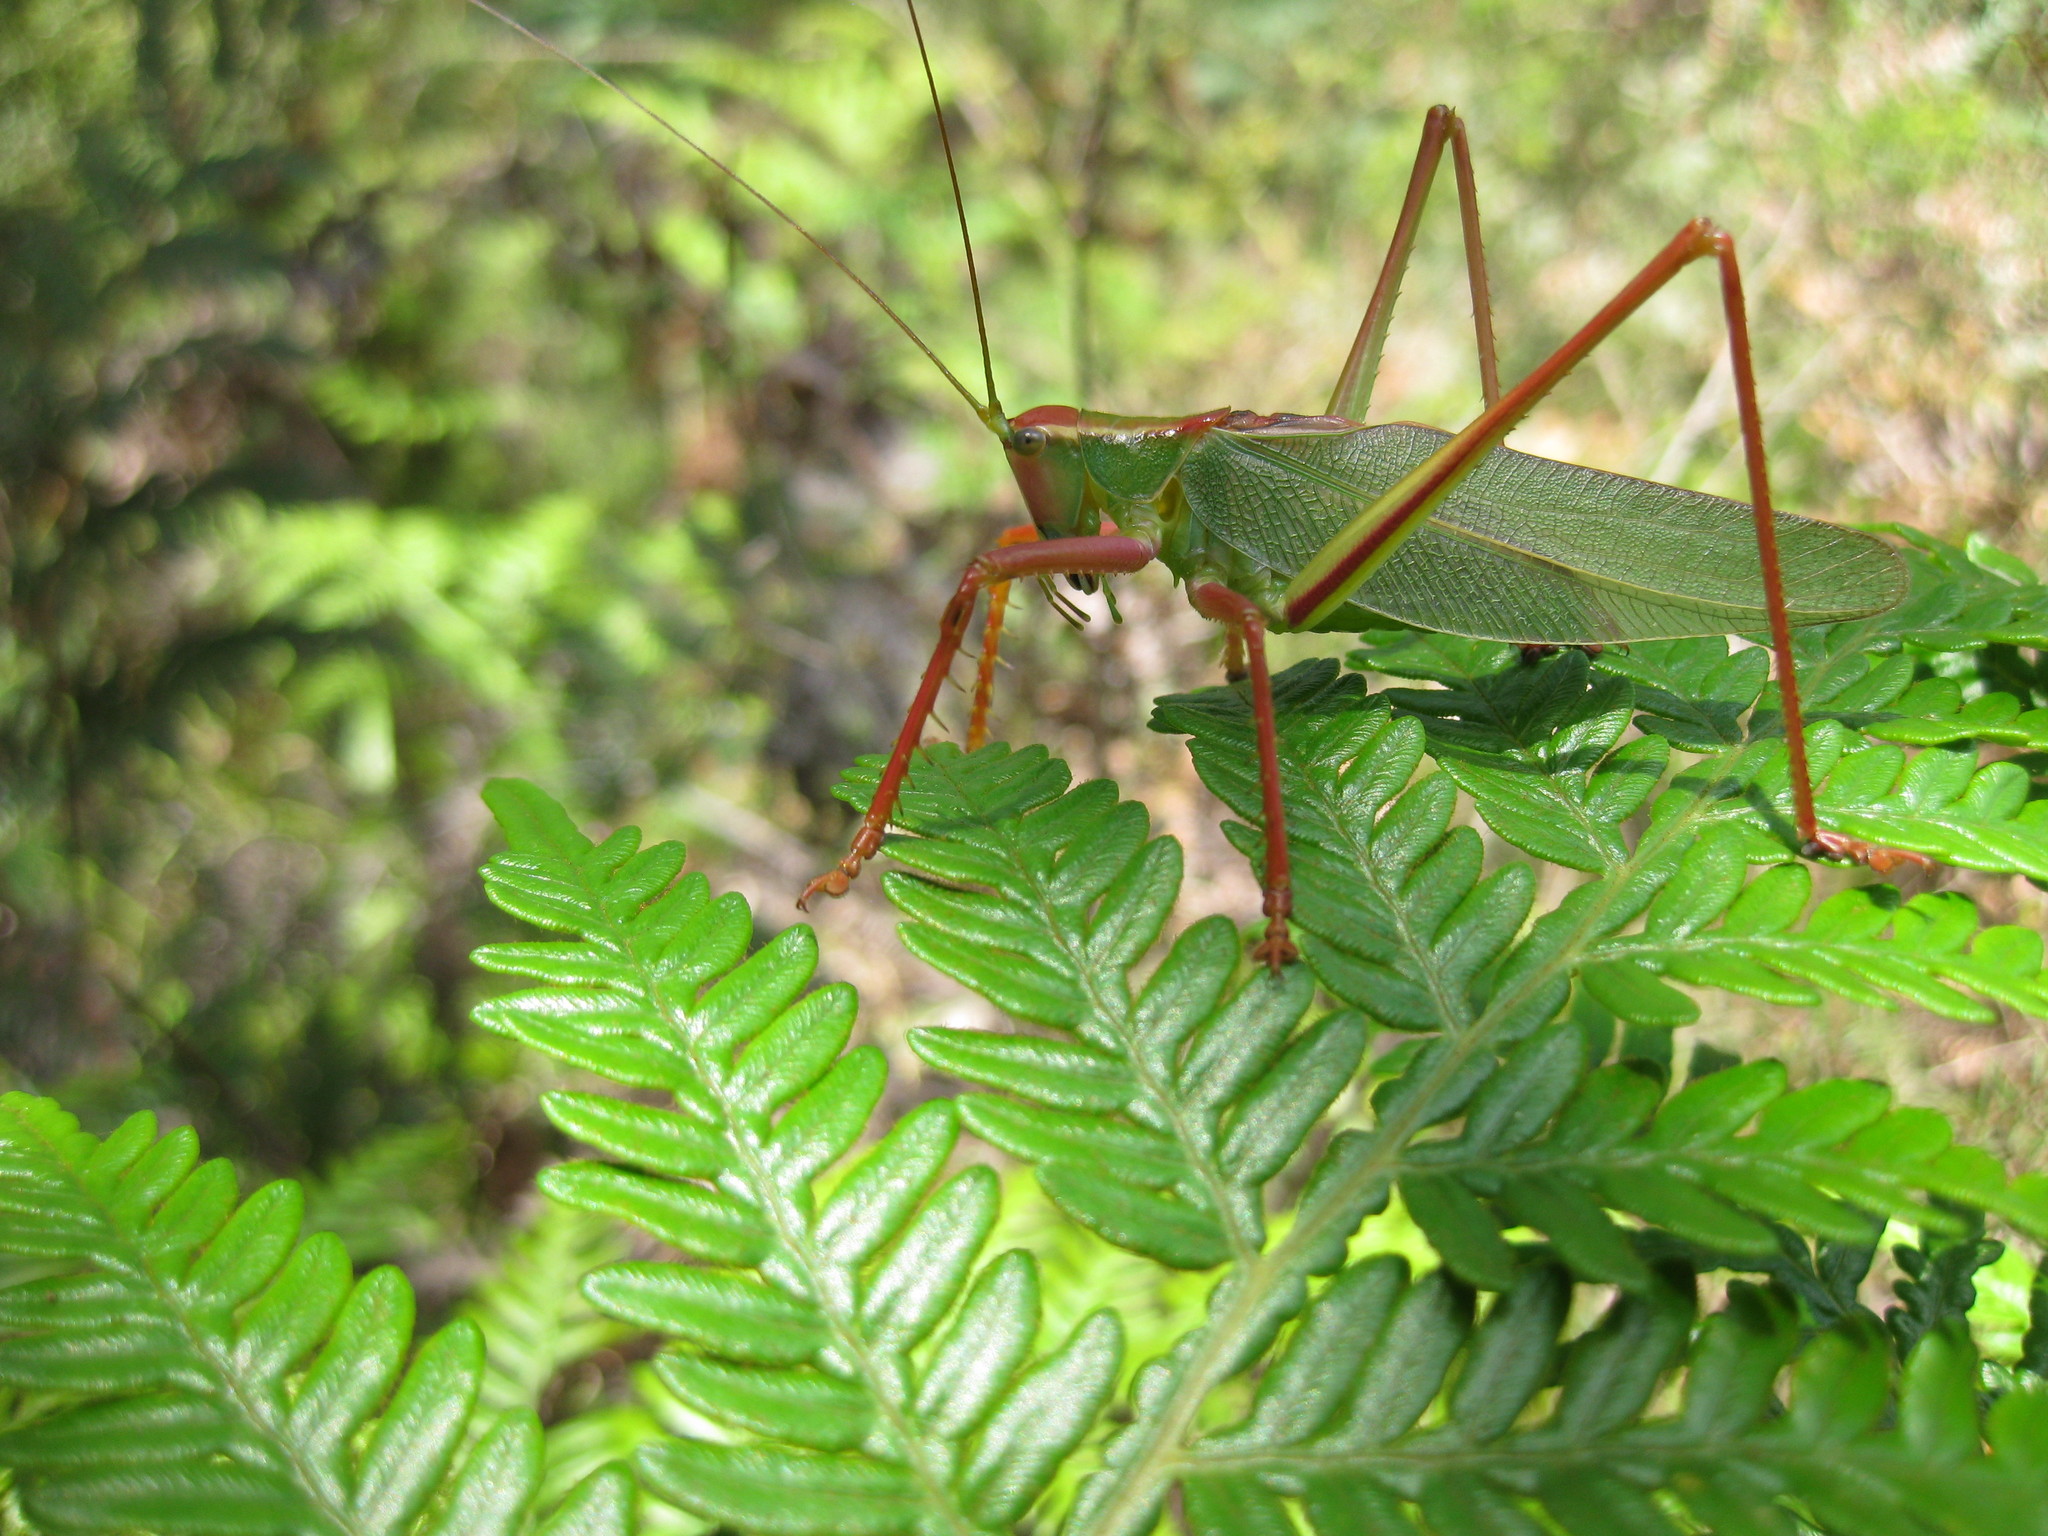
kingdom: Animalia
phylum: Arthropoda
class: Insecta
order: Orthoptera
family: Tettigoniidae
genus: Terpandrus
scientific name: Terpandrus norabeetya
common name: Norabeetya gumleaf katydid
